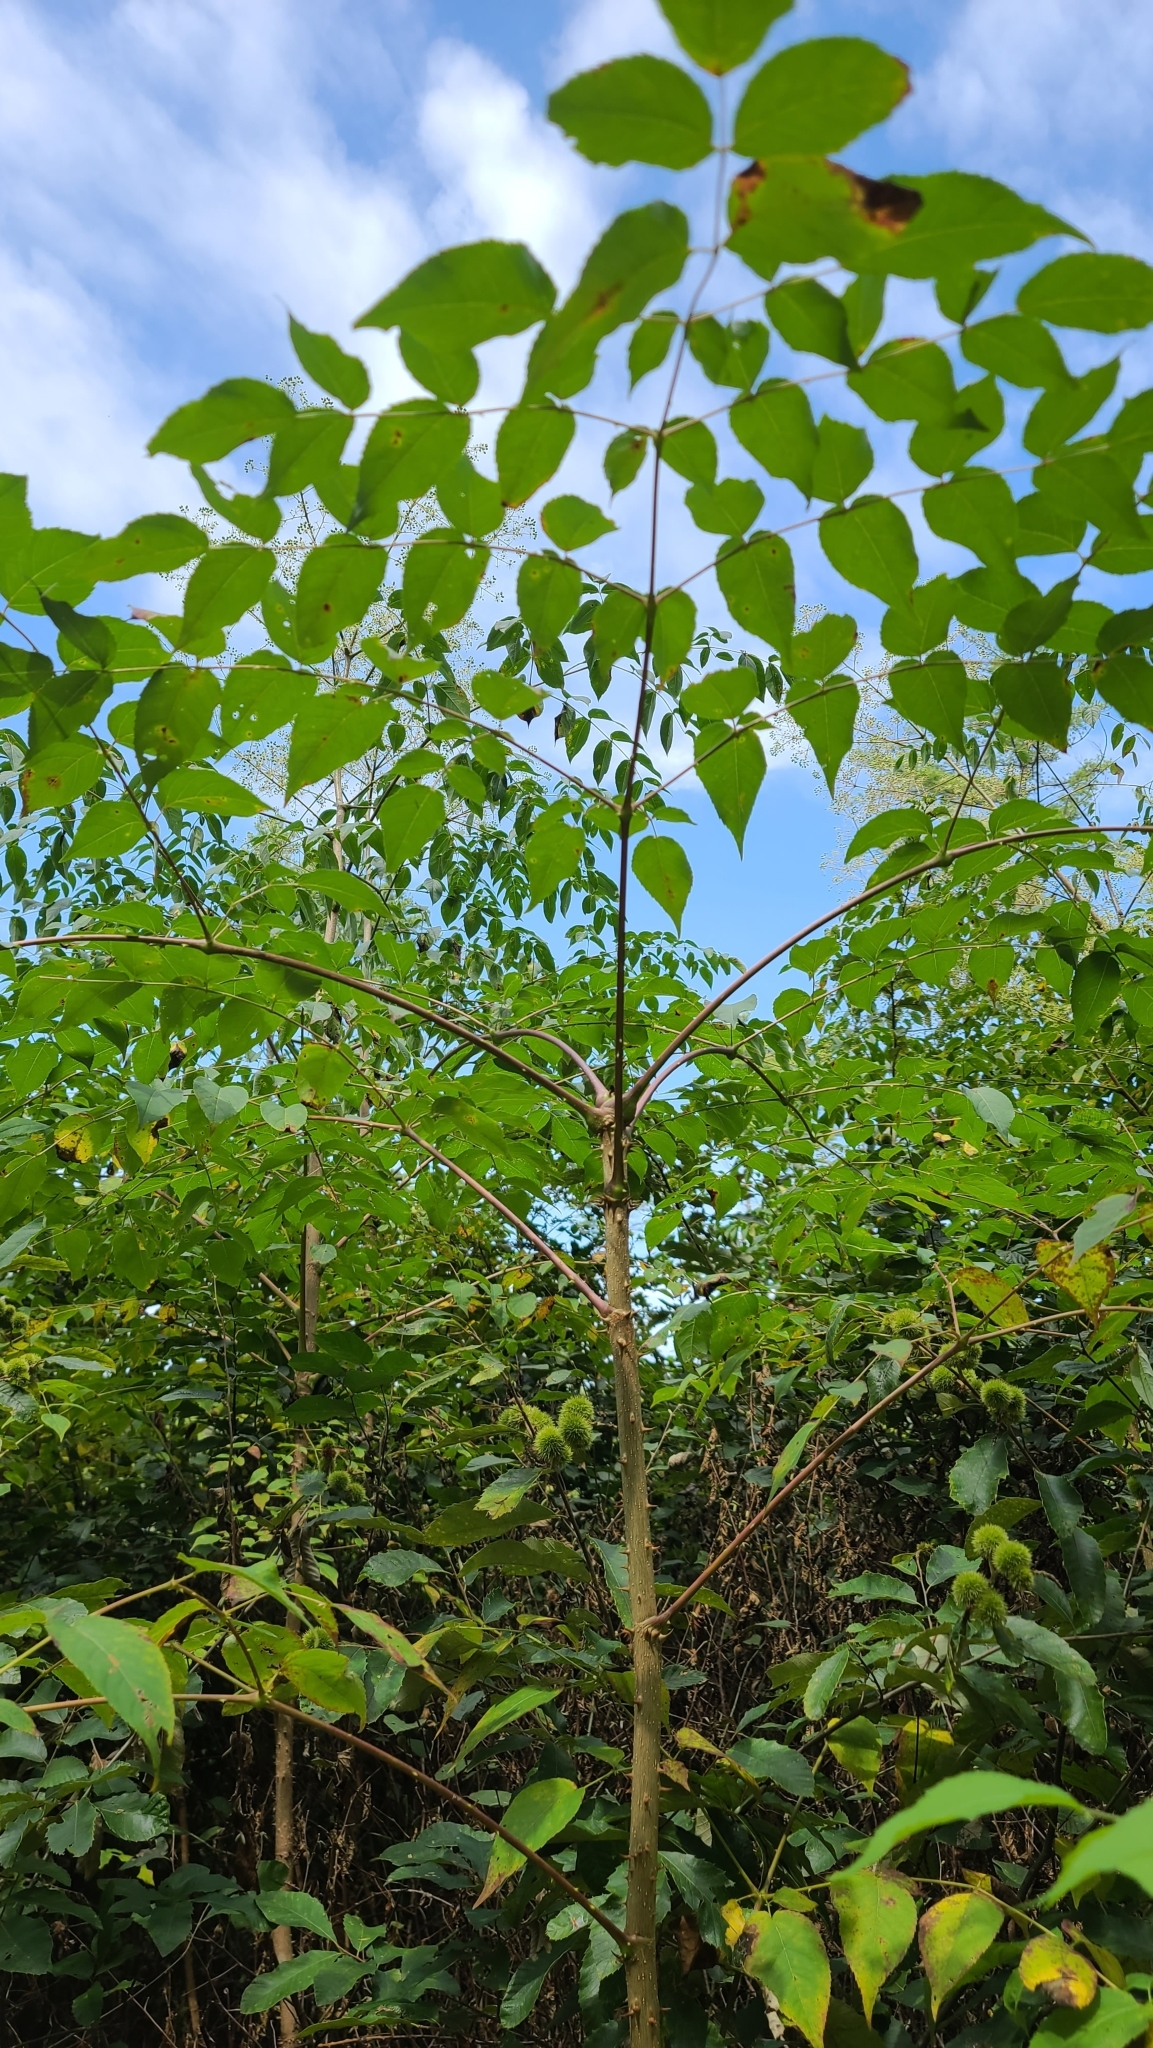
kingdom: Plantae
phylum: Tracheophyta
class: Magnoliopsida
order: Apiales
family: Araliaceae
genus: Aralia
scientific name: Aralia spinosa
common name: Hercules'-club
